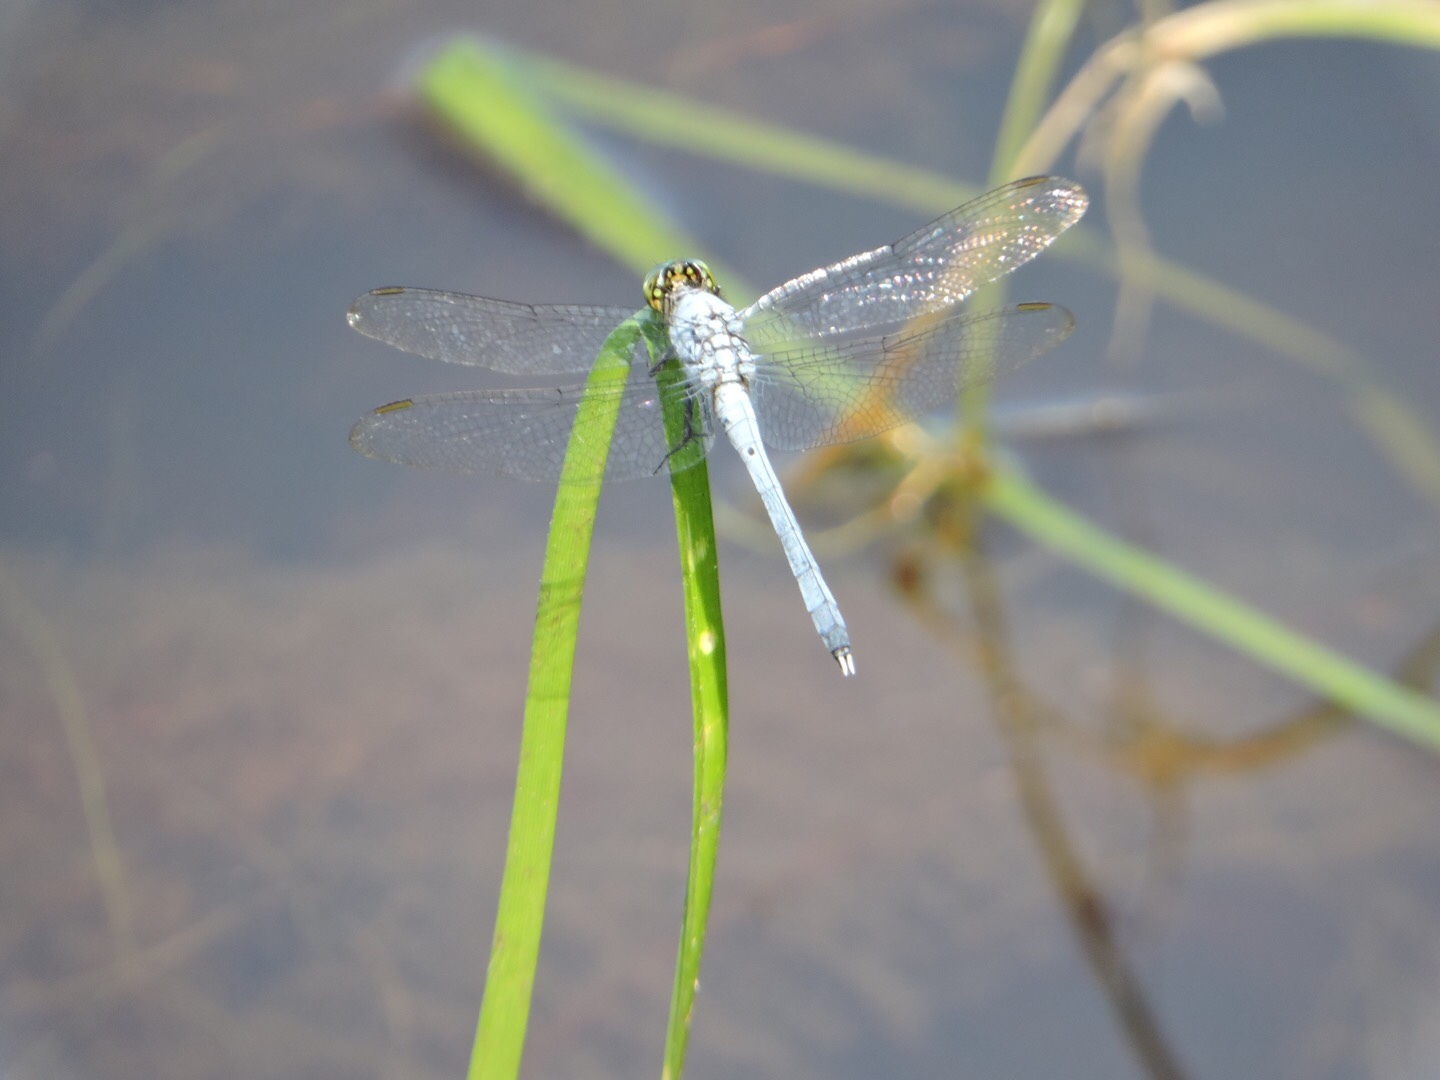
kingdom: Animalia
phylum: Arthropoda
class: Insecta
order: Odonata
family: Libellulidae
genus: Erythemis
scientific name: Erythemis simplicicollis
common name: Eastern pondhawk
